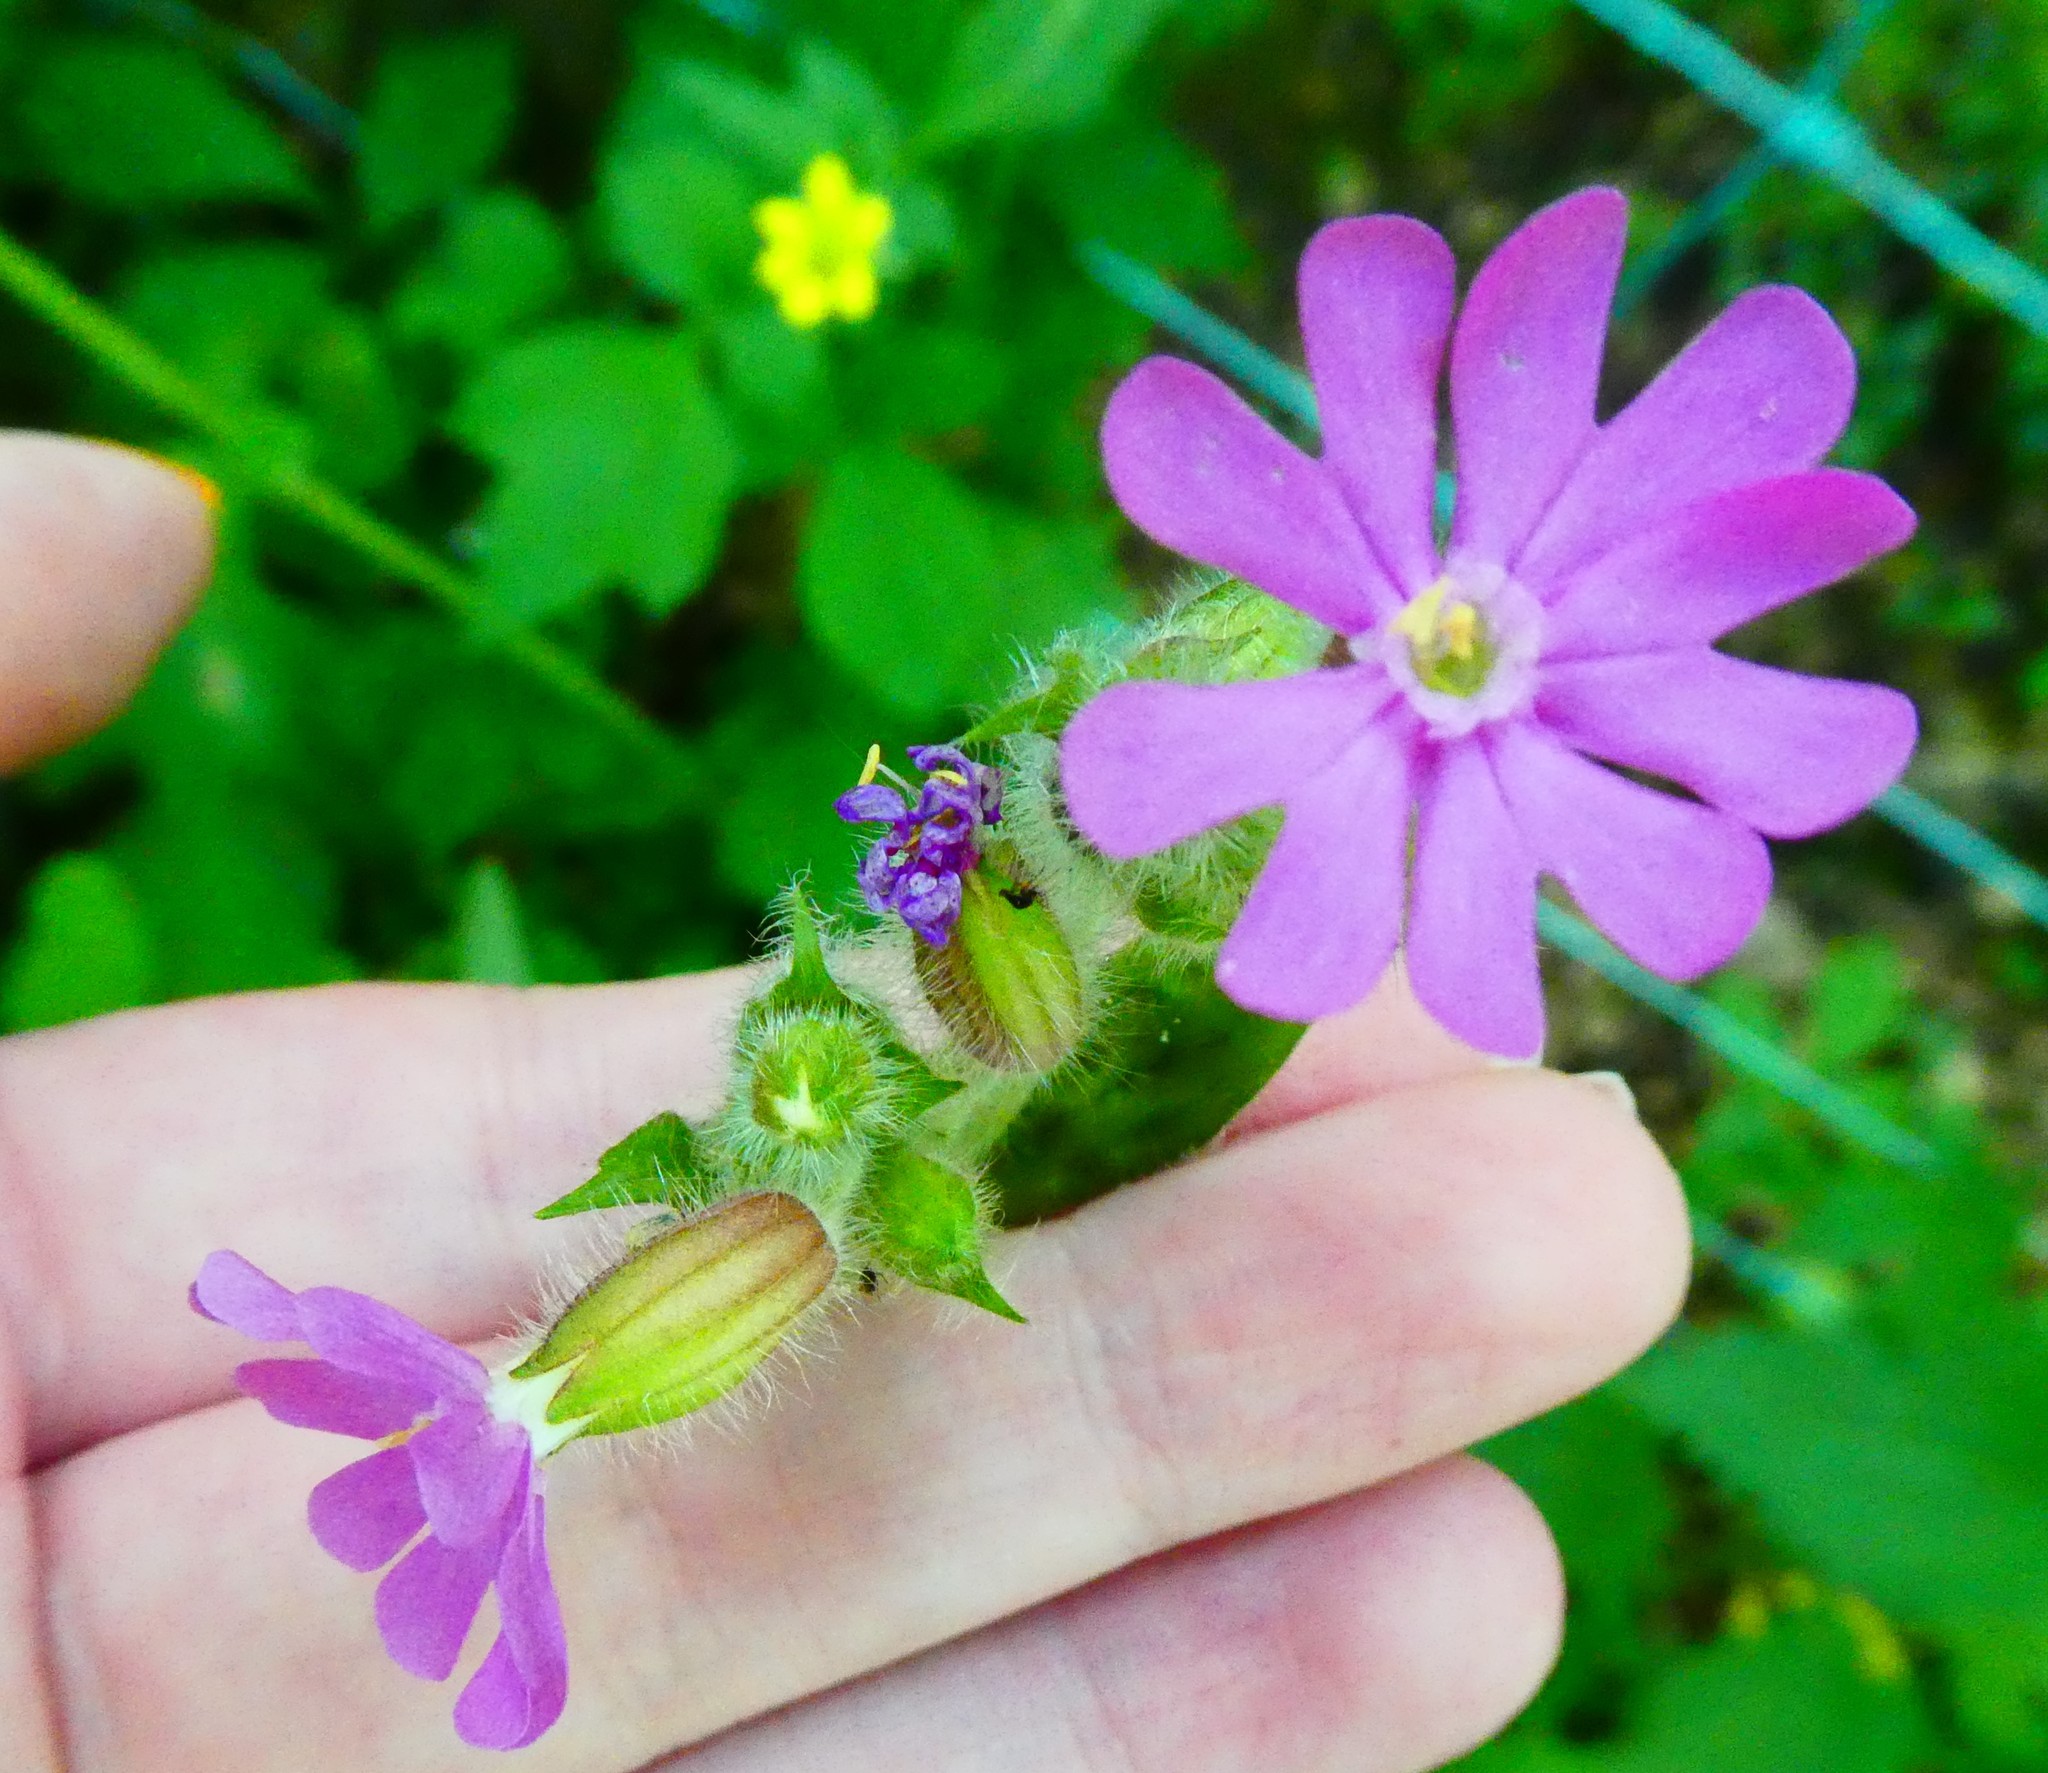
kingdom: Plantae
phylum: Tracheophyta
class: Magnoliopsida
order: Caryophyllales
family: Caryophyllaceae
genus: Silene
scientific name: Silene dioica
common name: Red campion
